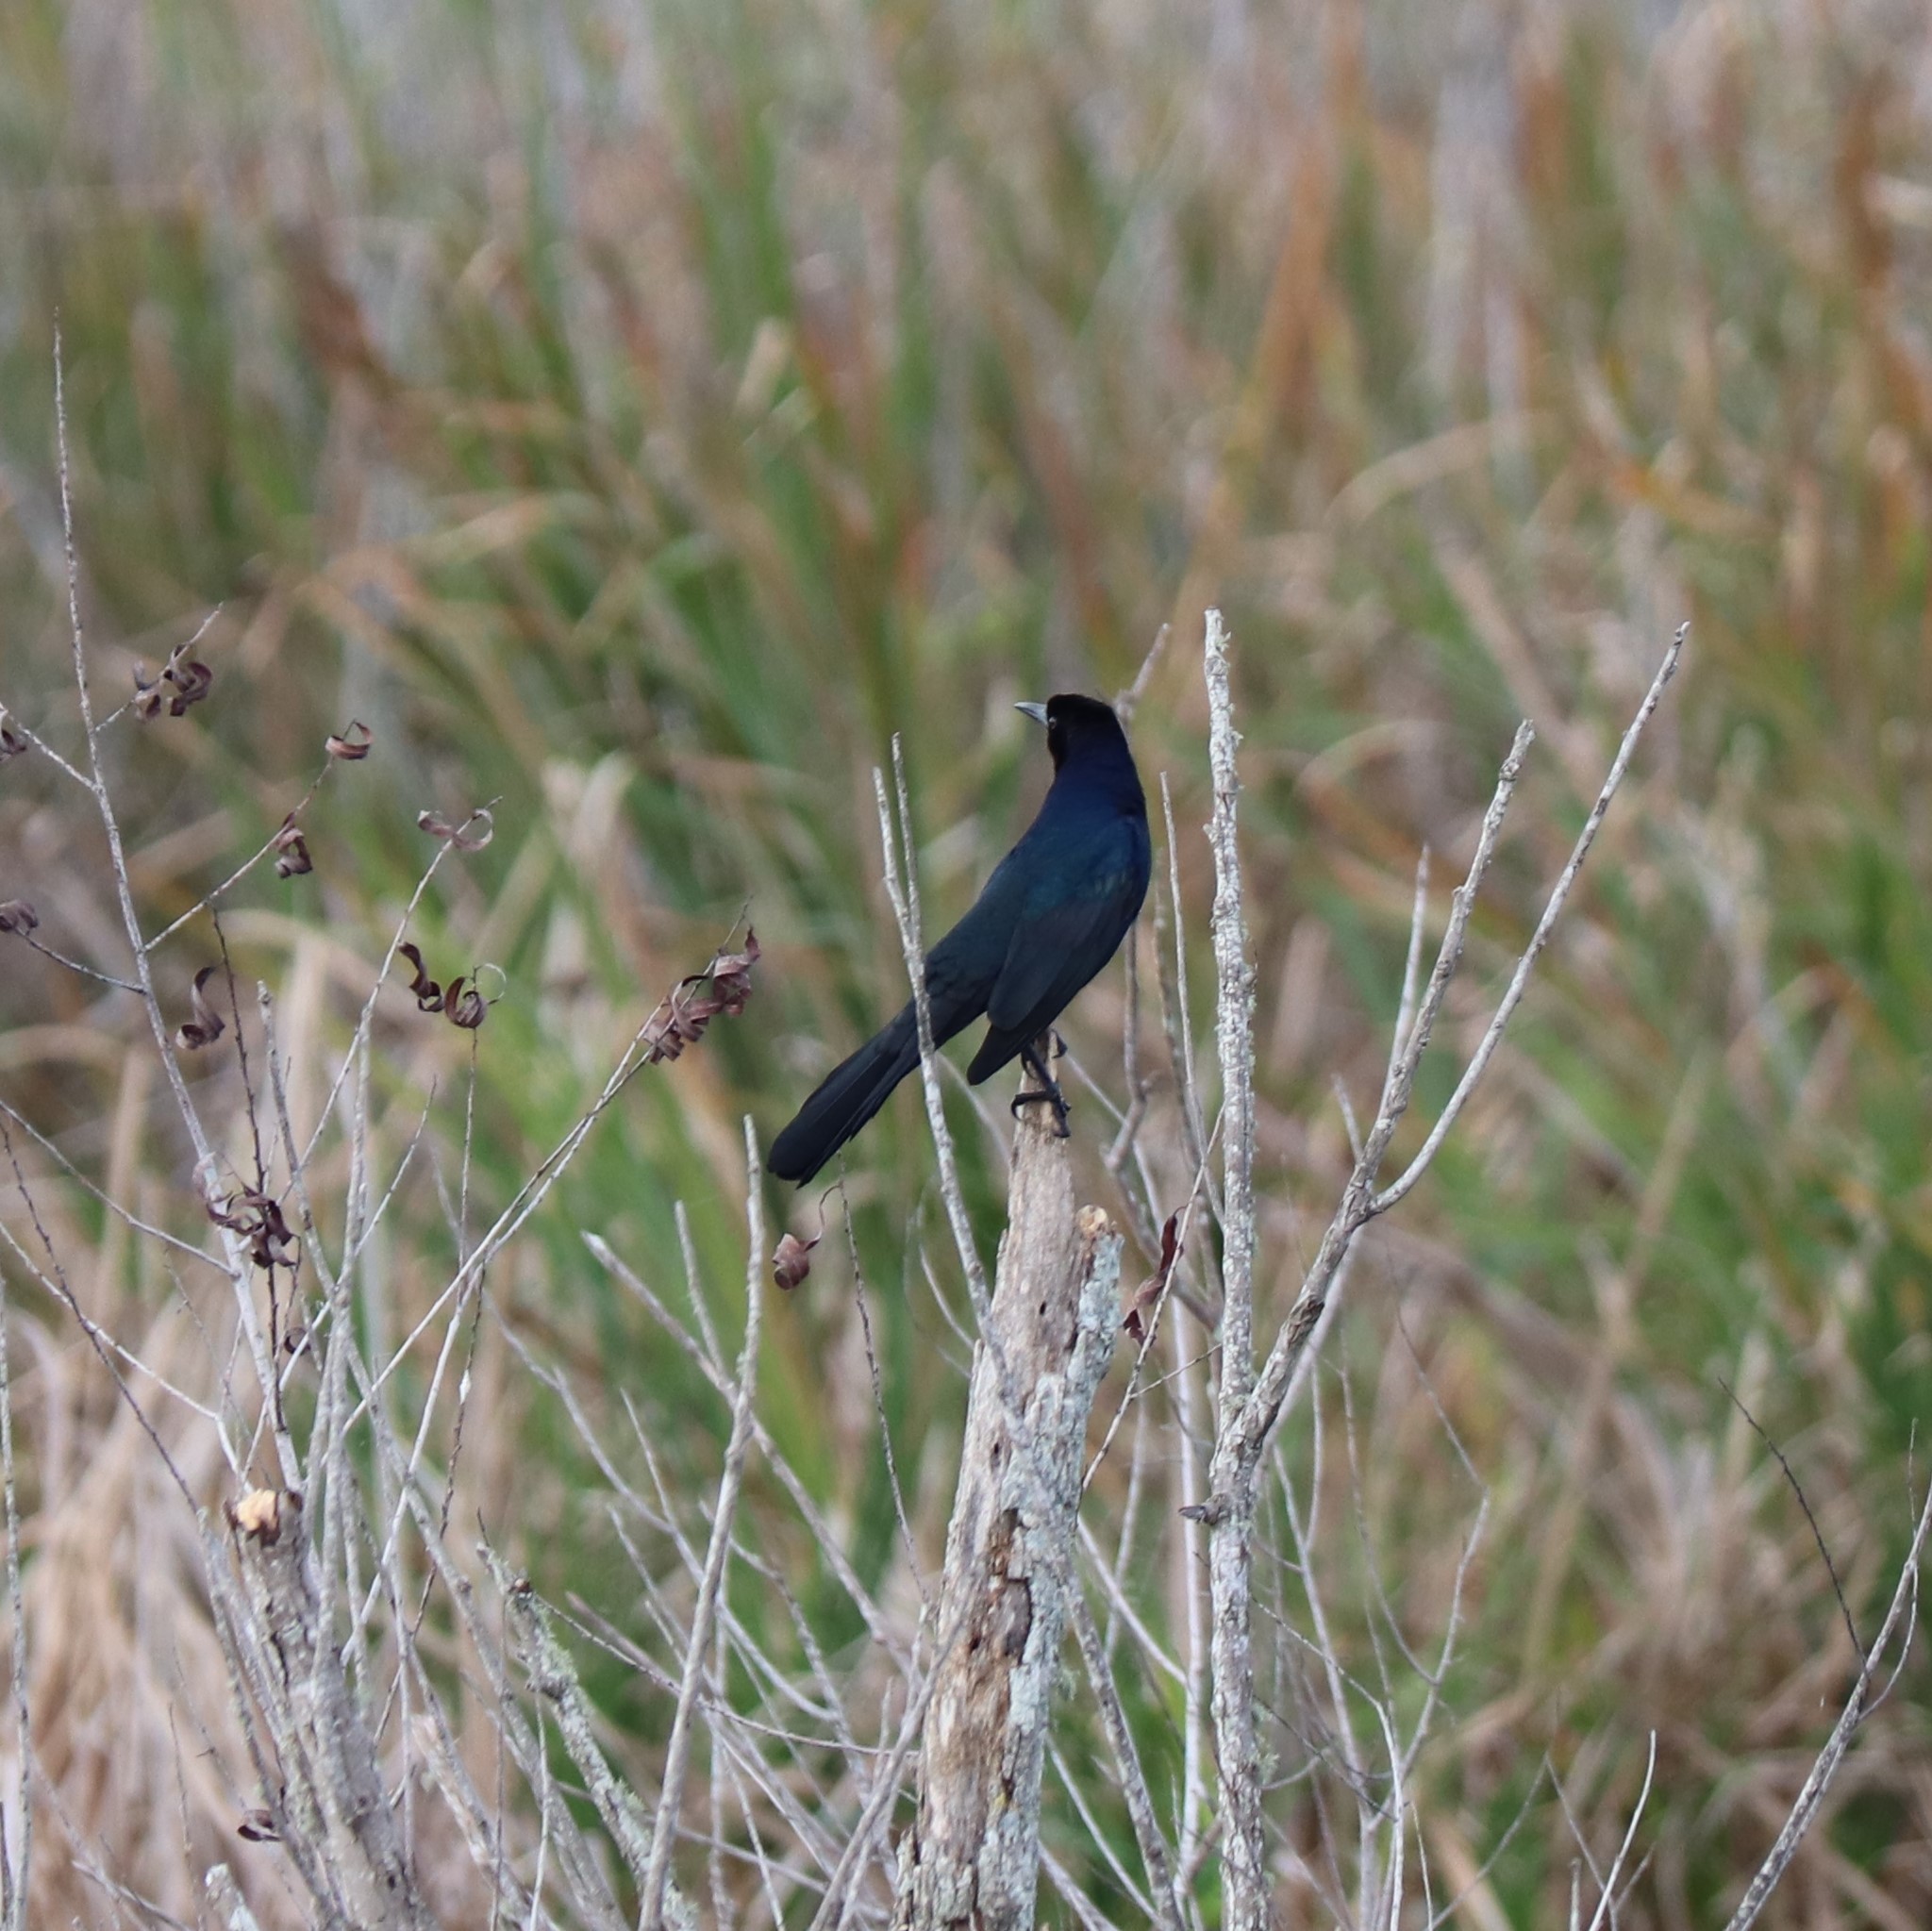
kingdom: Animalia
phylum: Chordata
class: Aves
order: Passeriformes
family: Icteridae
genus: Quiscalus
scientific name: Quiscalus major
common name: Boat-tailed grackle
